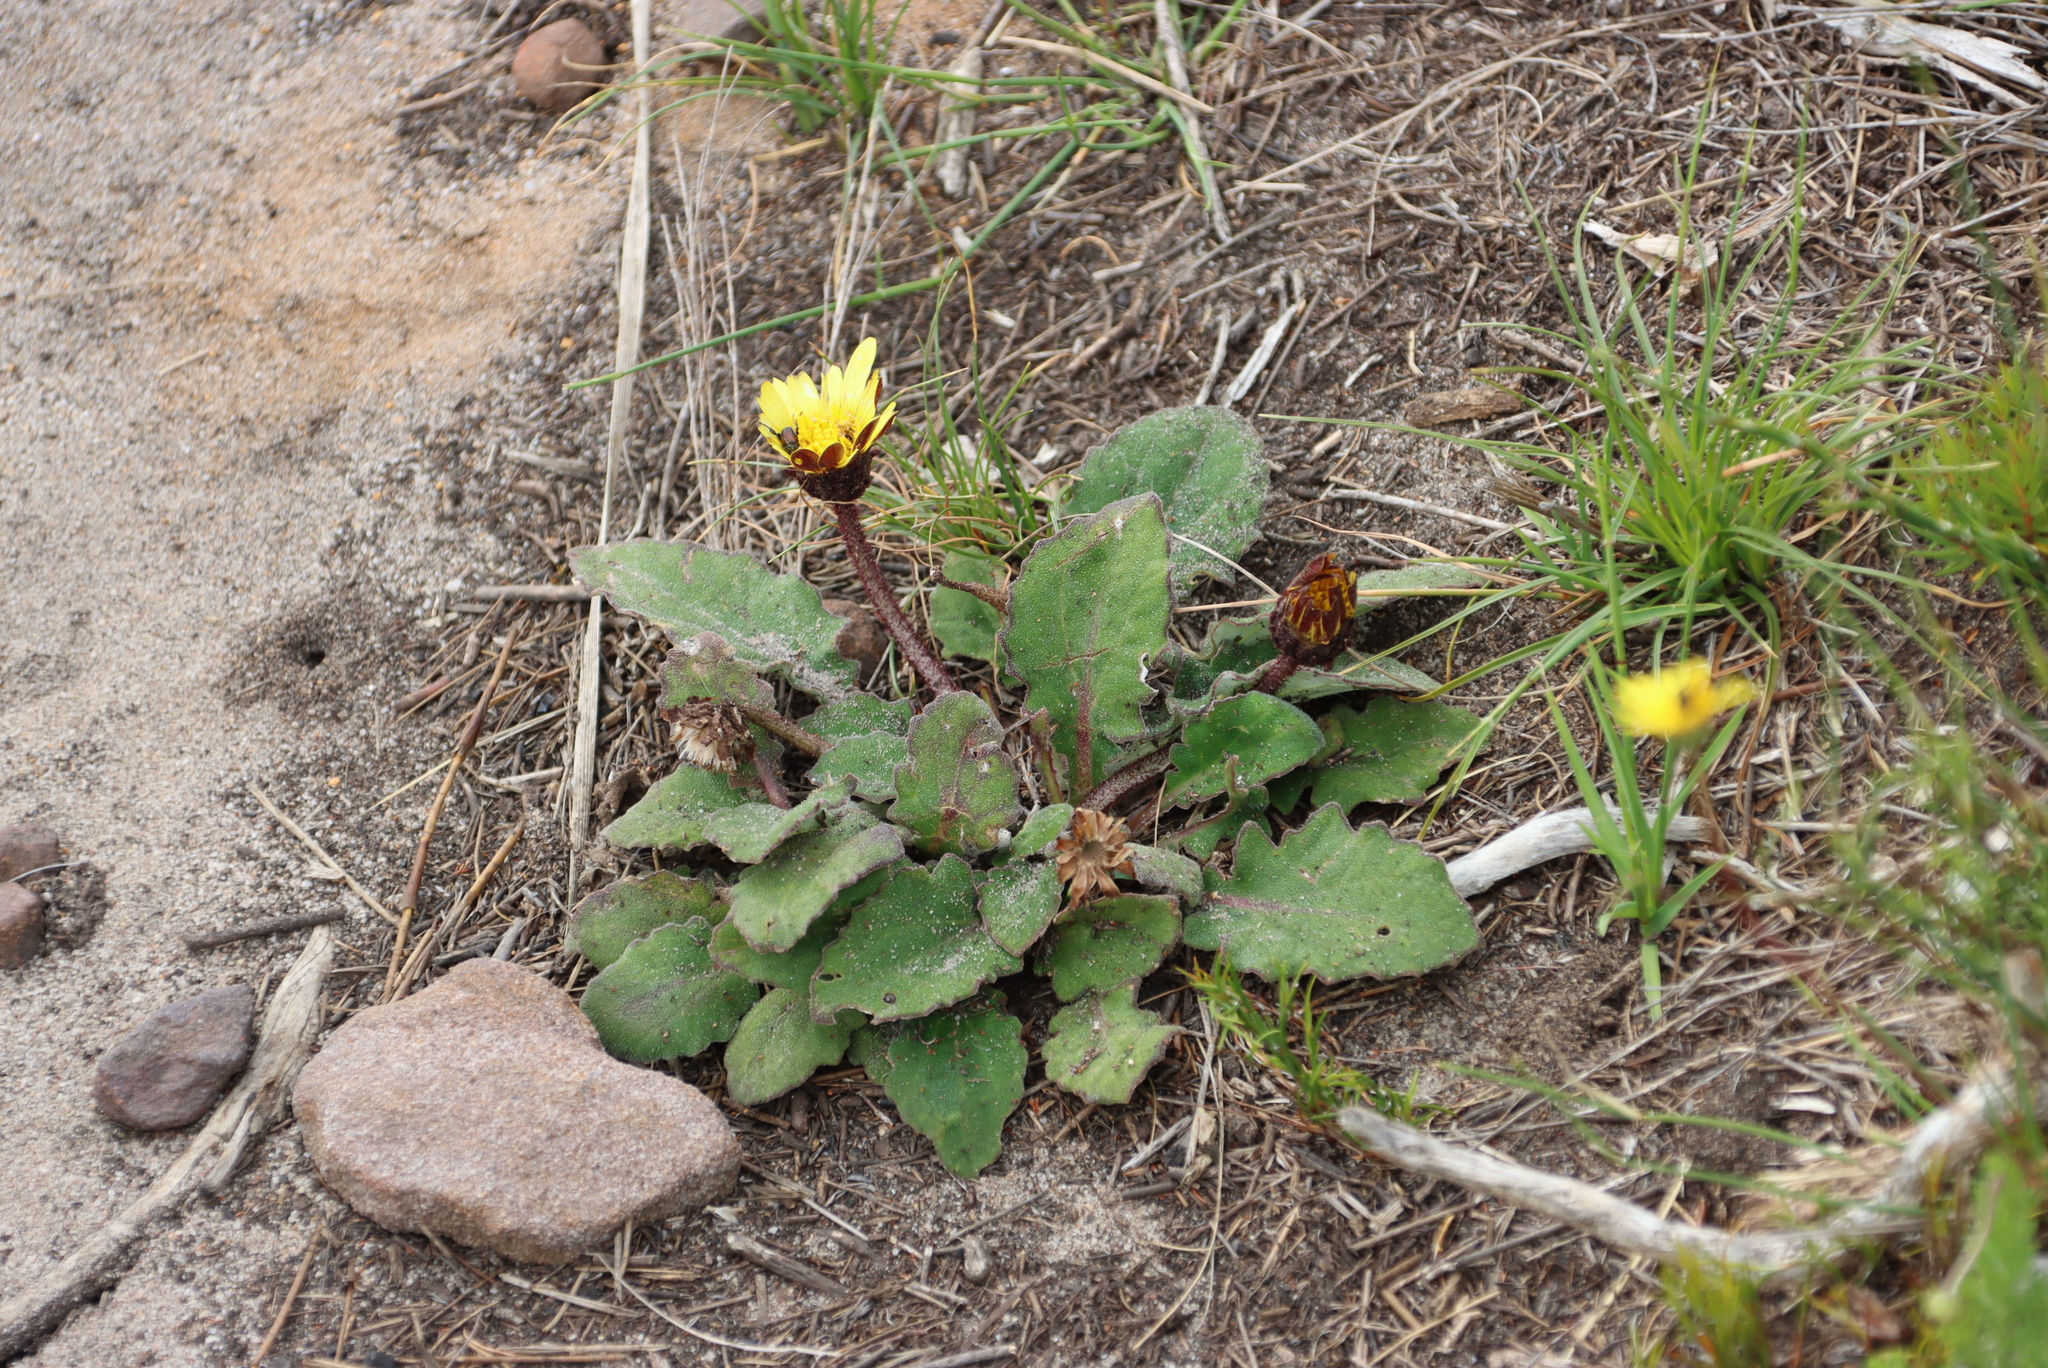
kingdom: Plantae
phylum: Tracheophyta
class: Magnoliopsida
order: Asterales
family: Asteraceae
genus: Haplocarpha
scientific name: Haplocarpha lanata
